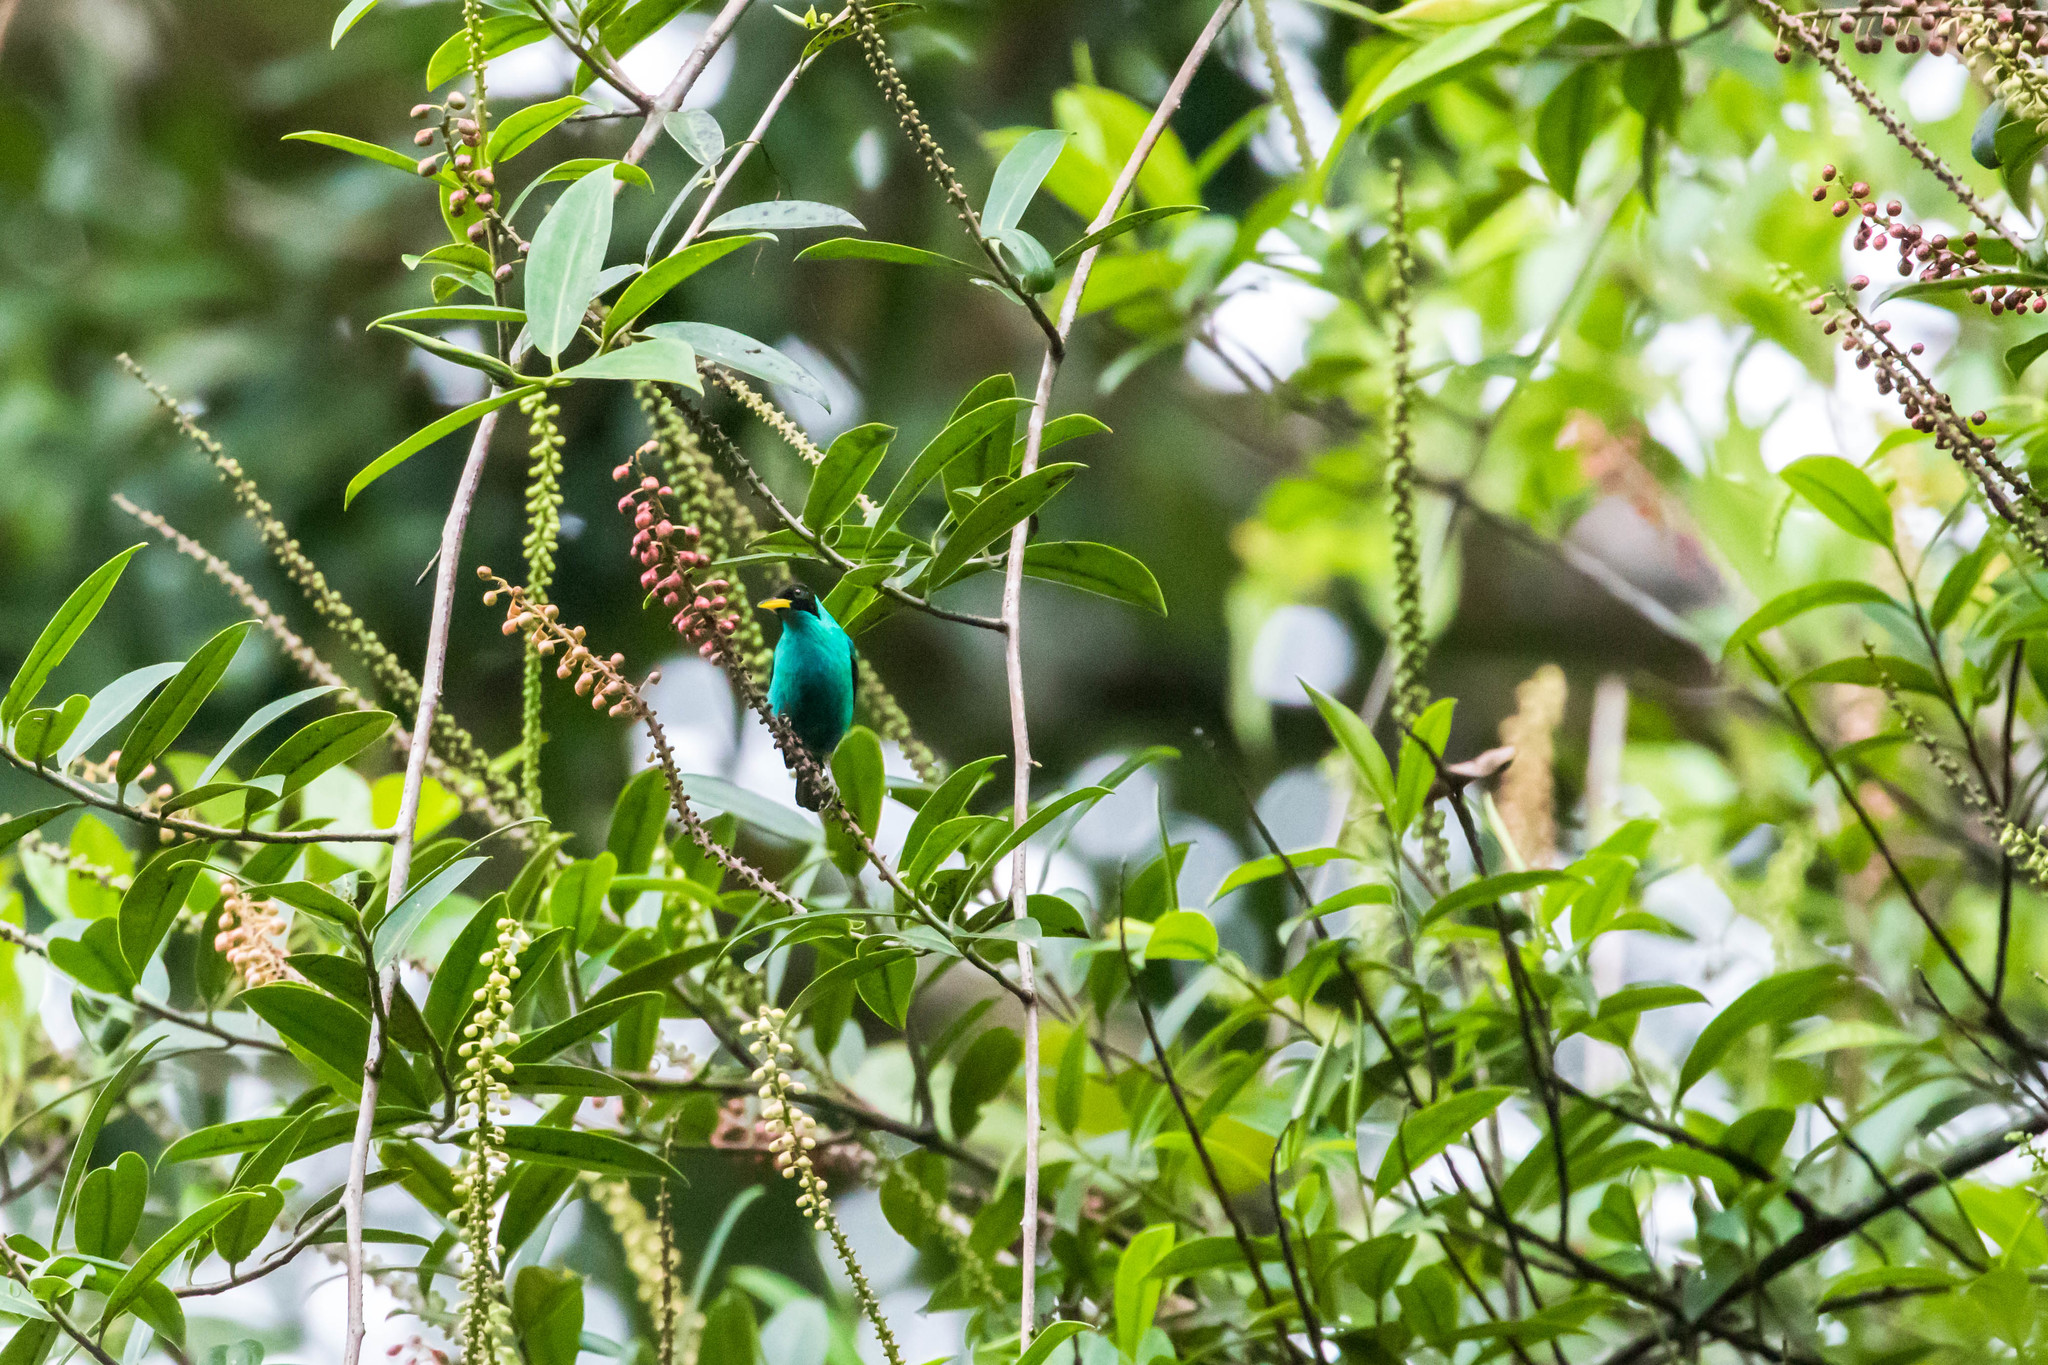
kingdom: Animalia
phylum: Chordata
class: Aves
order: Passeriformes
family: Thraupidae
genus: Chlorophanes
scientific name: Chlorophanes spiza
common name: Green honeycreeper
